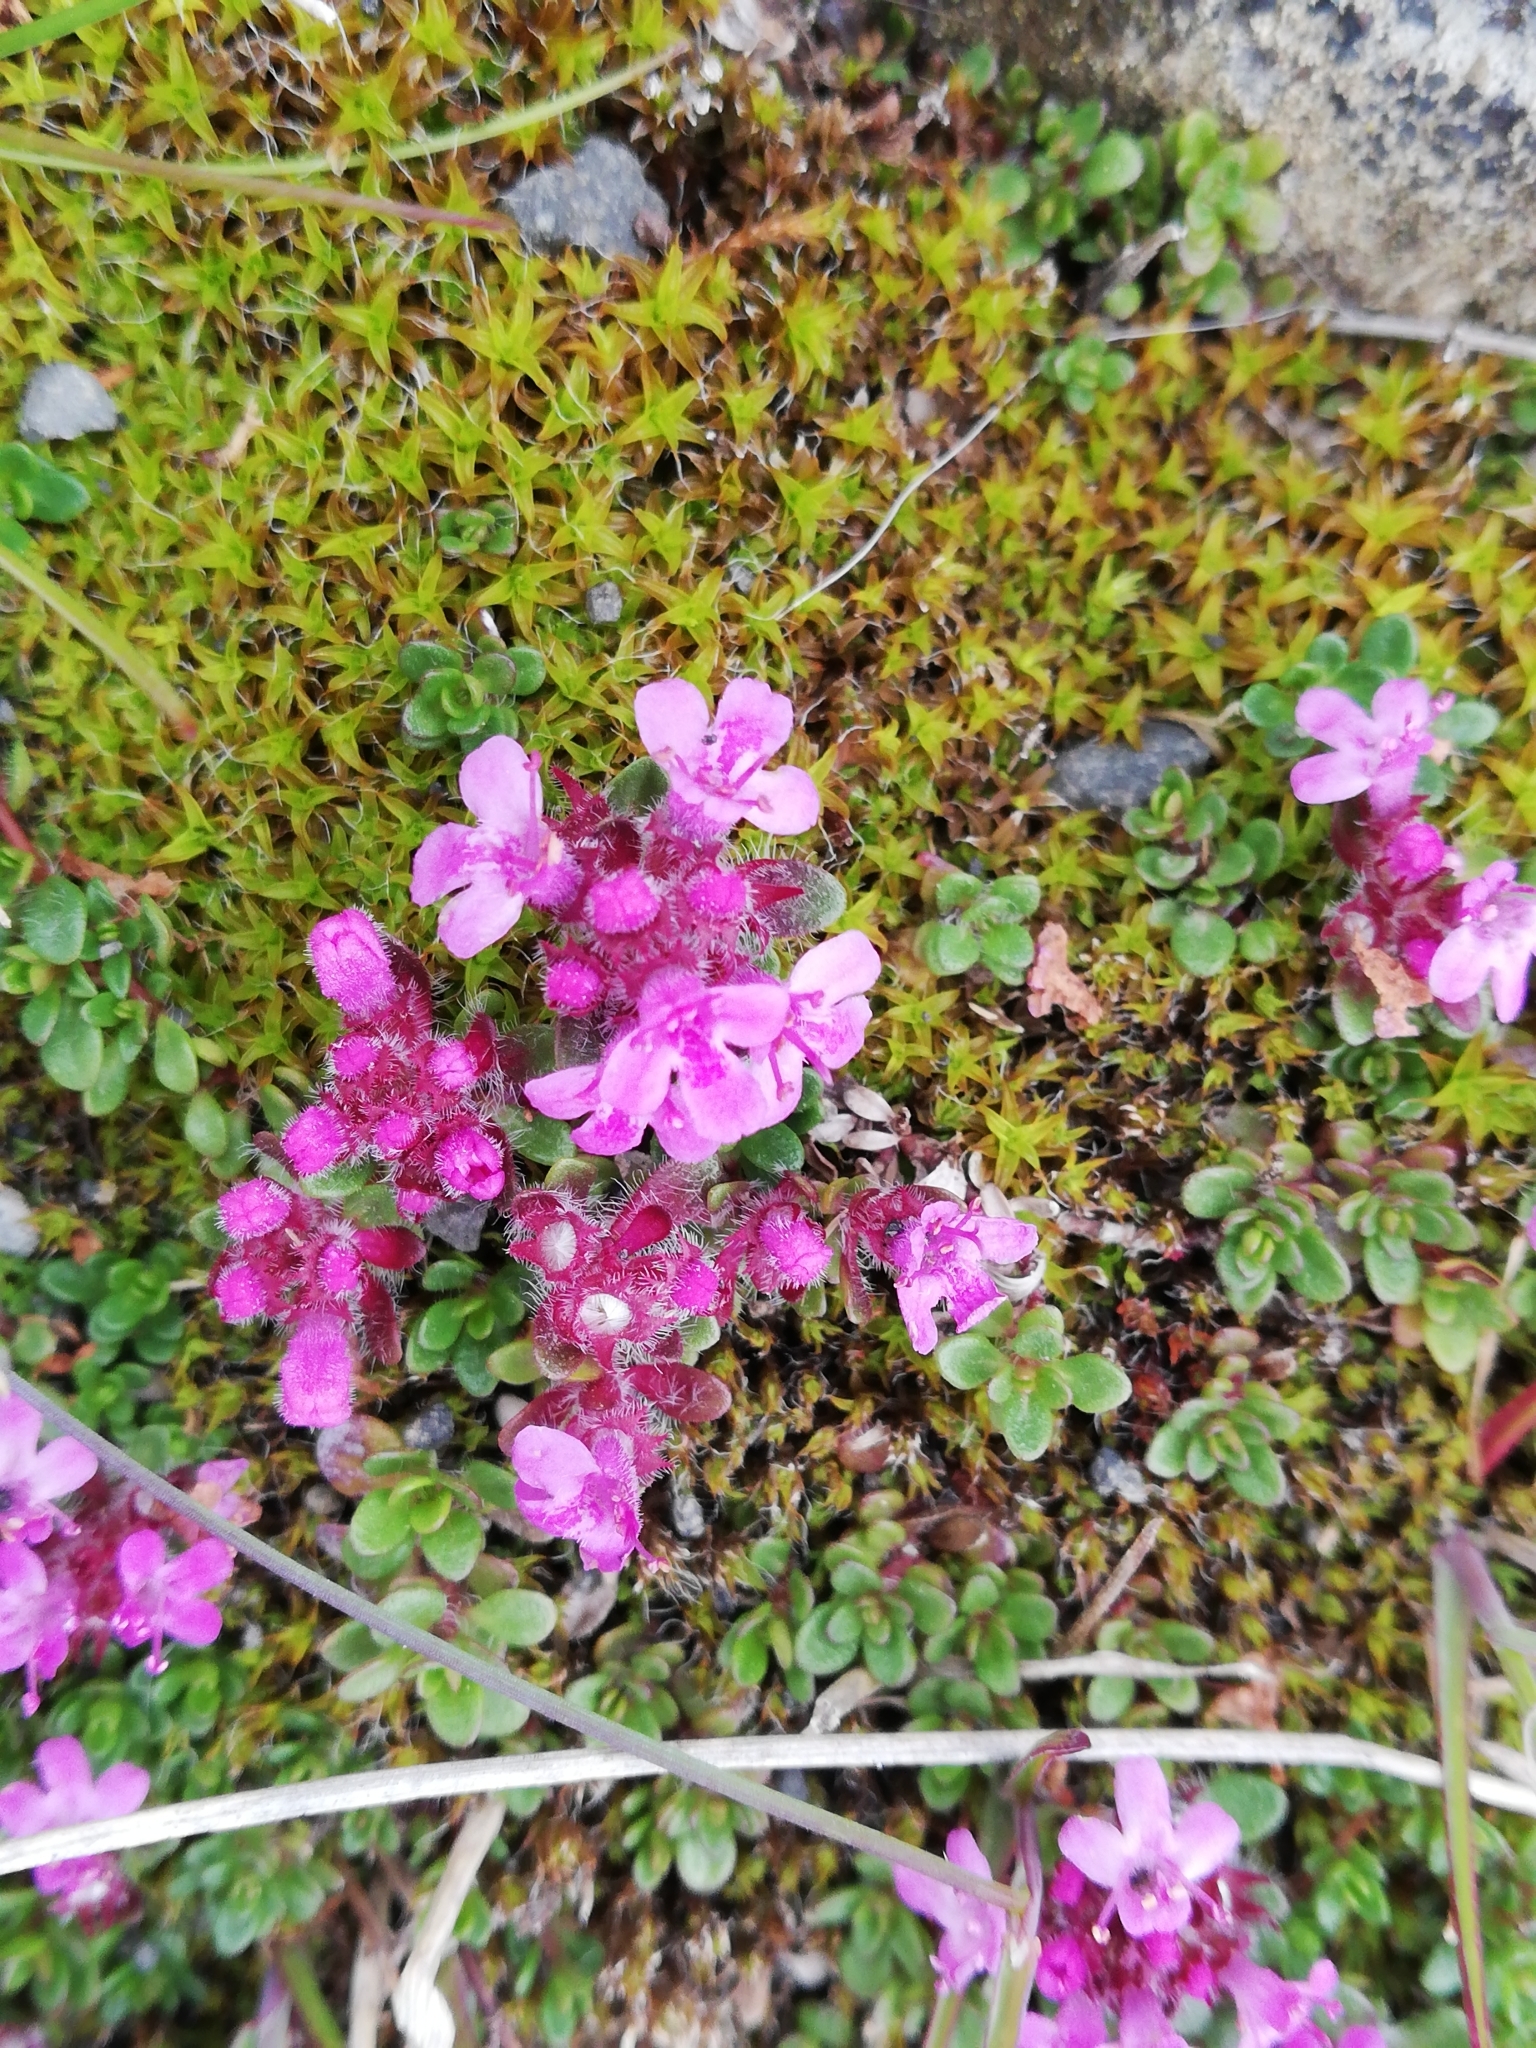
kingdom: Plantae
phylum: Tracheophyta
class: Magnoliopsida
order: Lamiales
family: Lamiaceae
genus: Thymus
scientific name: Thymus praecox
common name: Wild thyme
